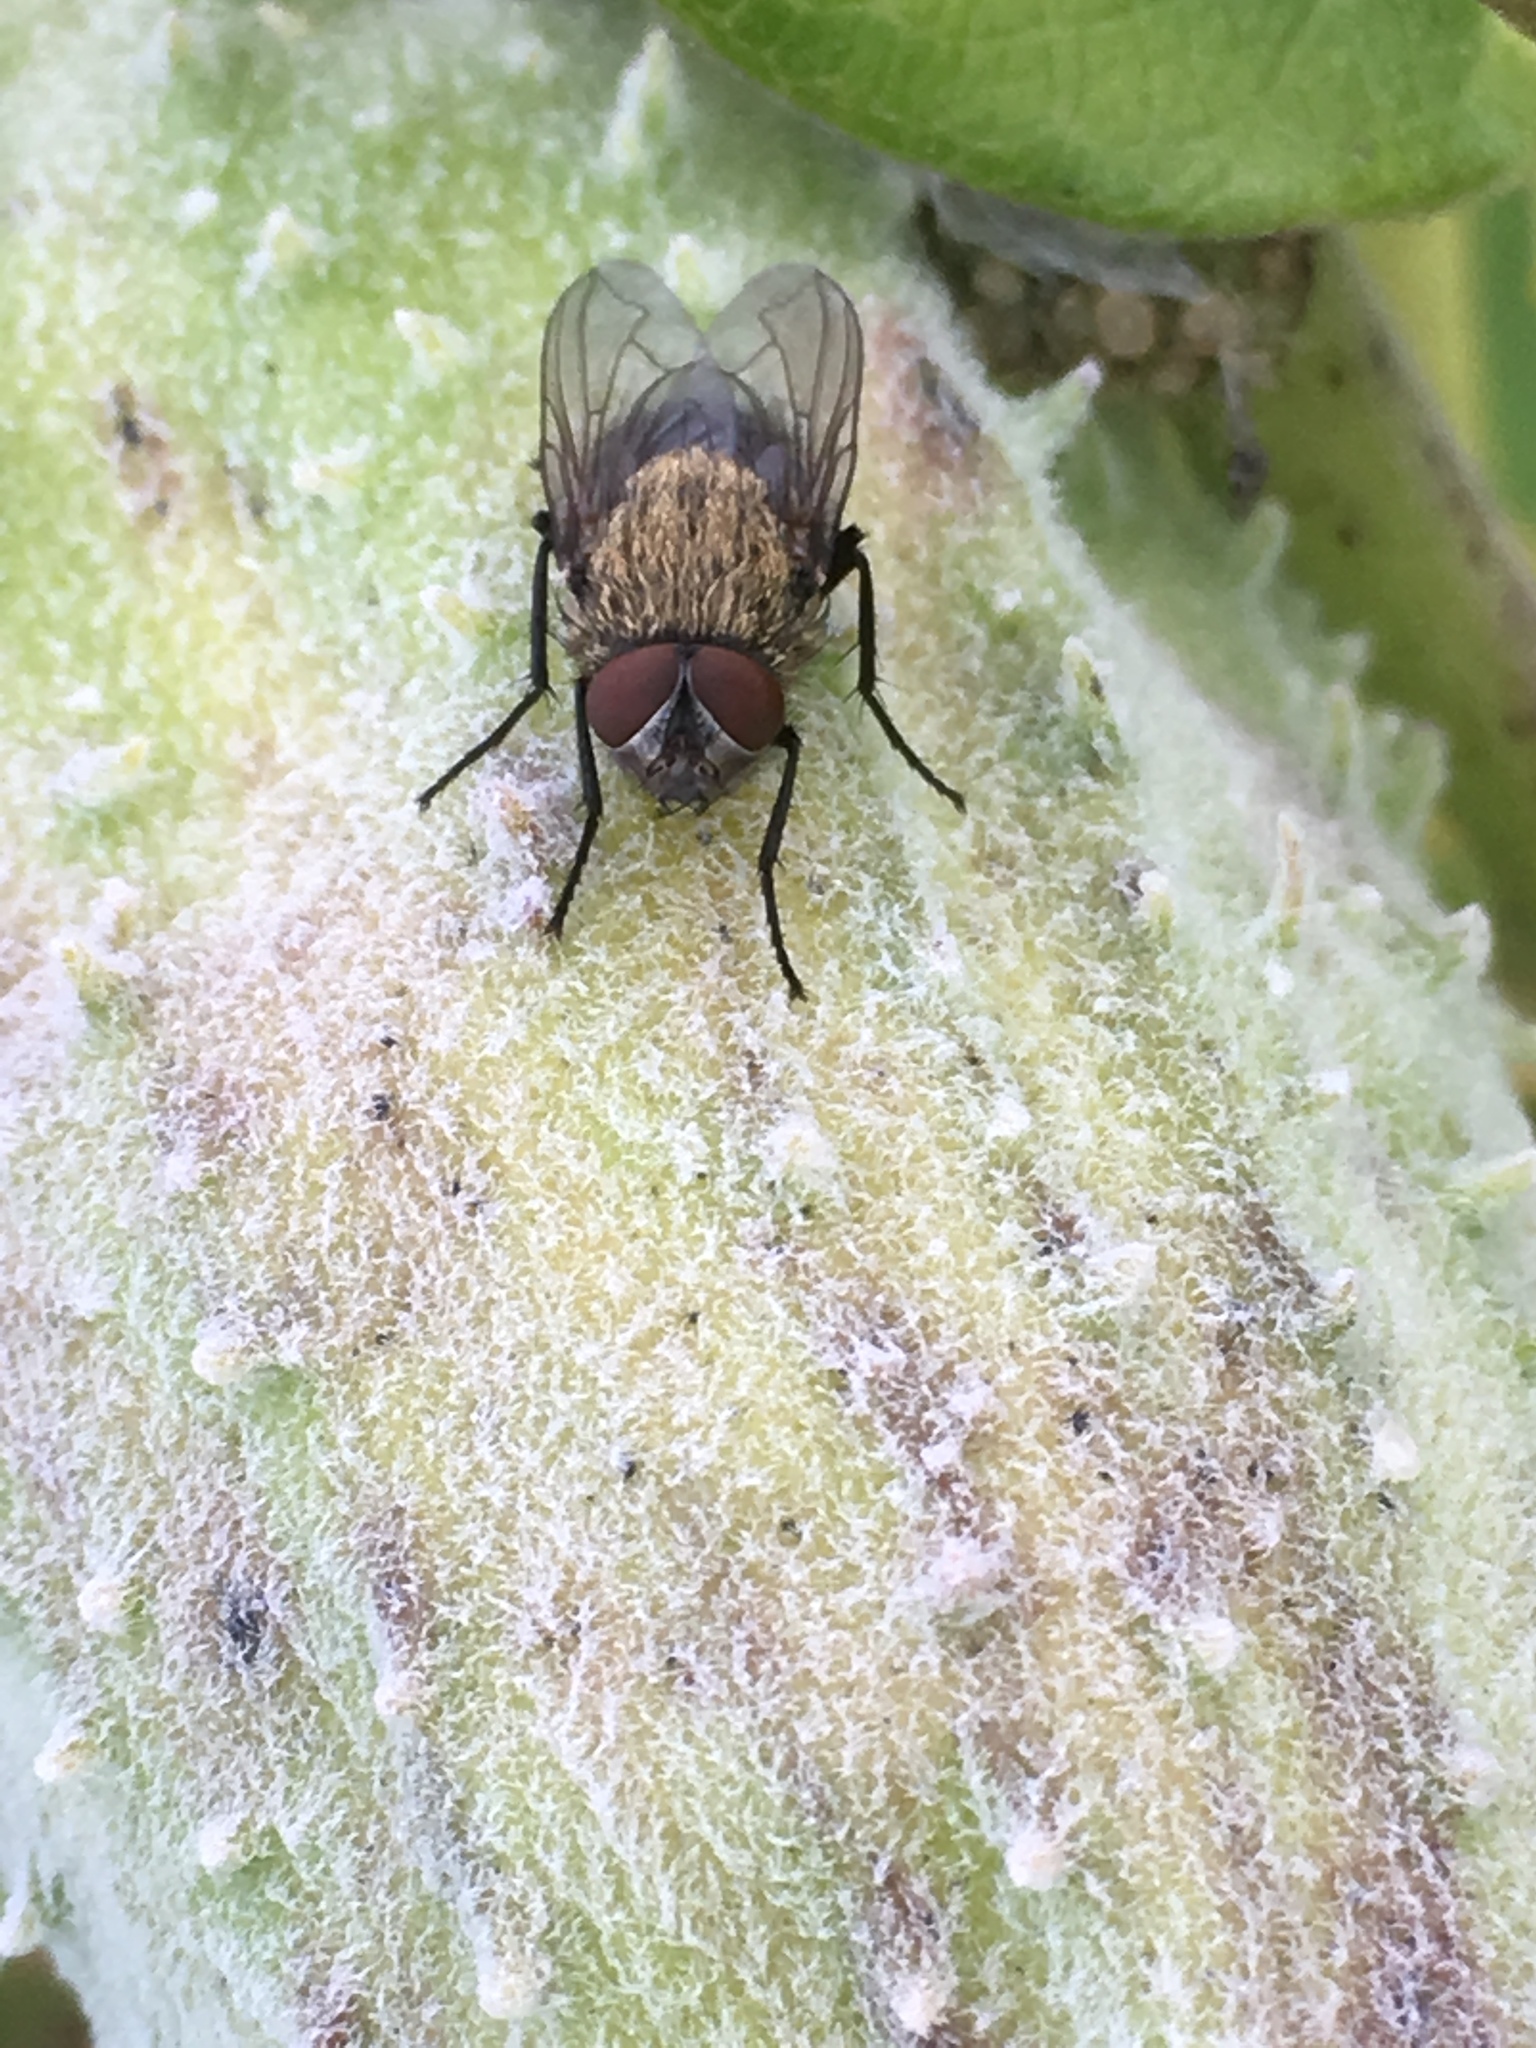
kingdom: Animalia
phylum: Arthropoda
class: Insecta
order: Diptera
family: Polleniidae
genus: Pollenia
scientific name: Pollenia
